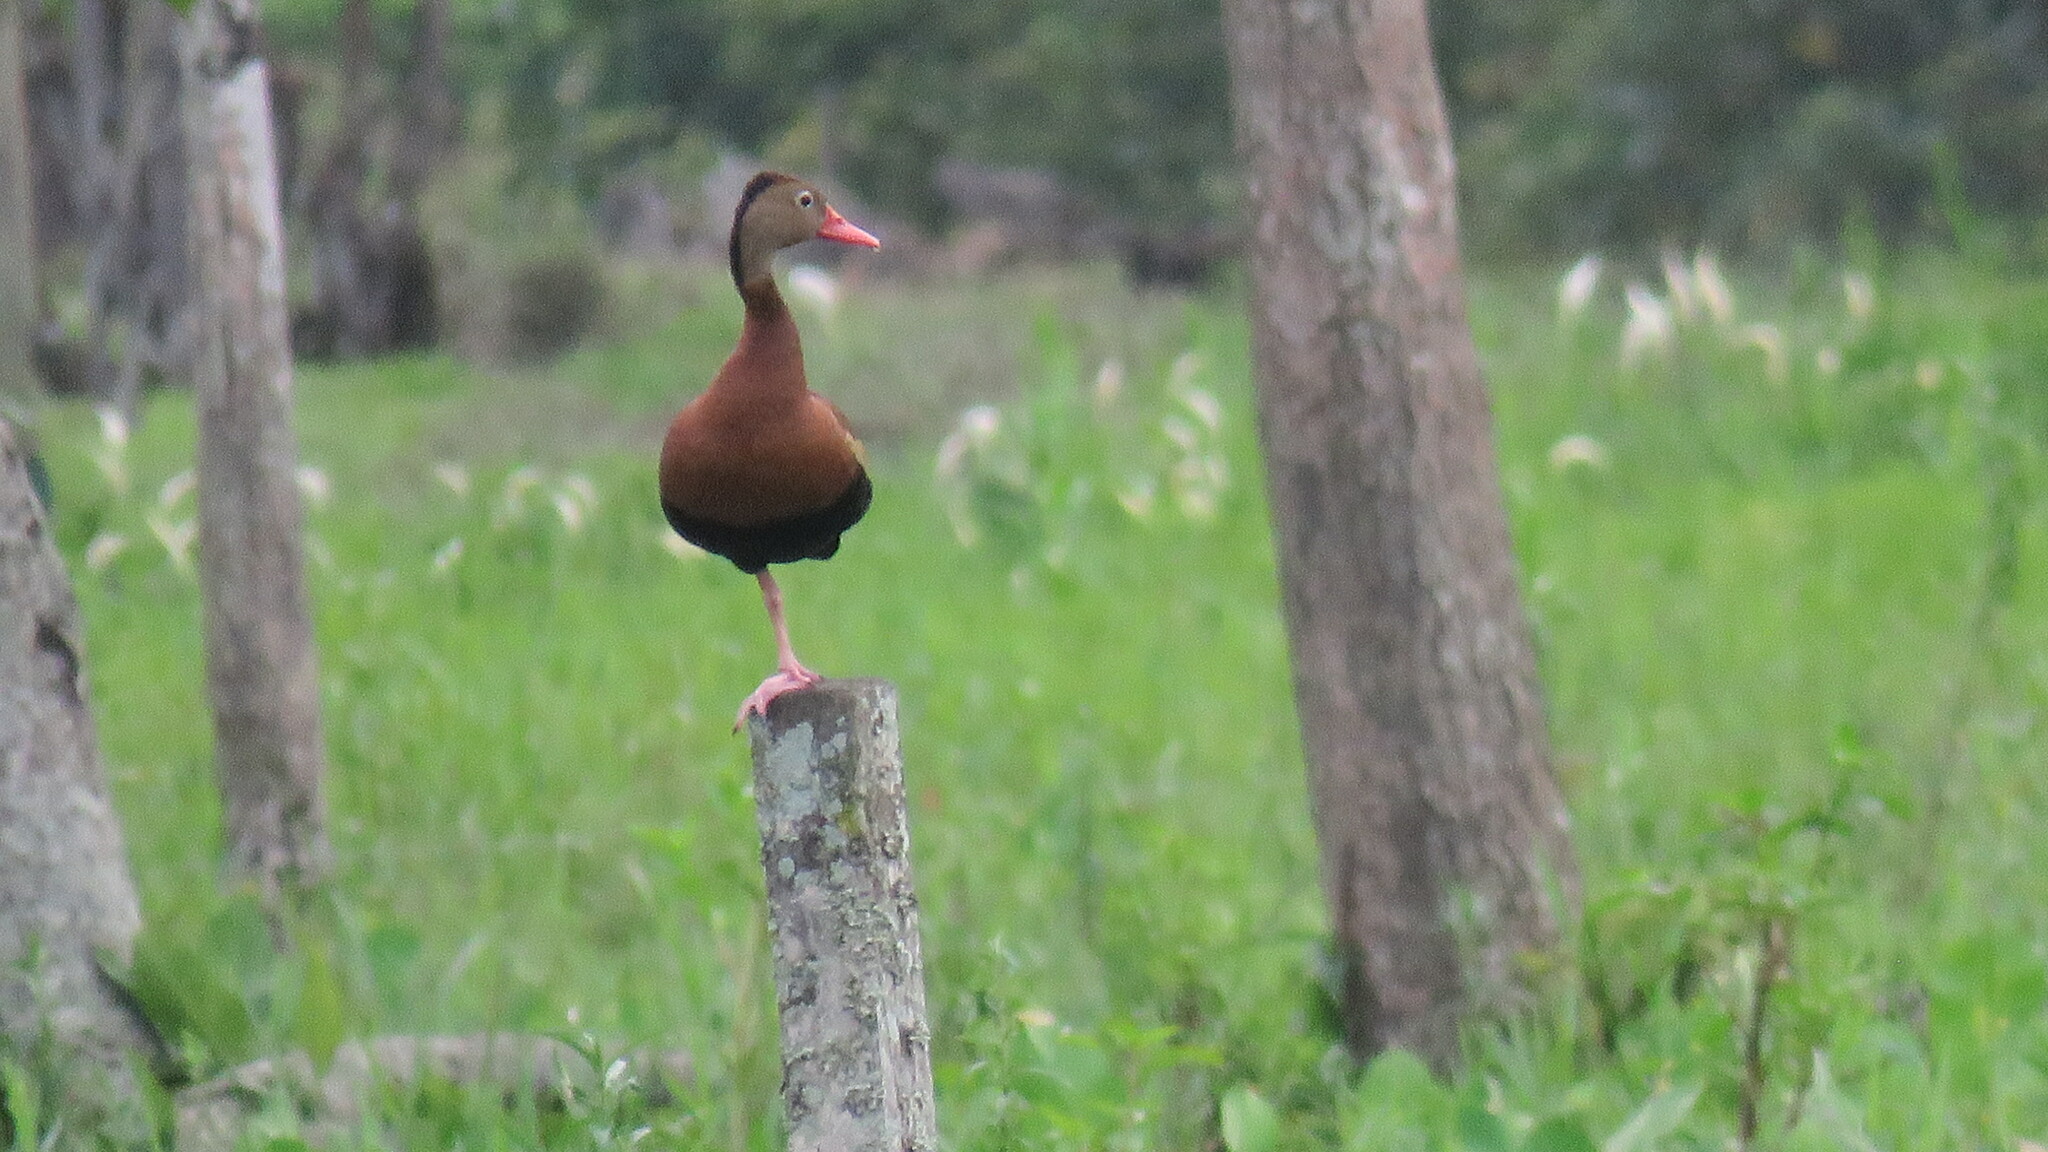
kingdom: Animalia
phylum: Chordata
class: Aves
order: Anseriformes
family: Anatidae
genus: Dendrocygna
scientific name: Dendrocygna autumnalis
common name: Black-bellied whistling duck
